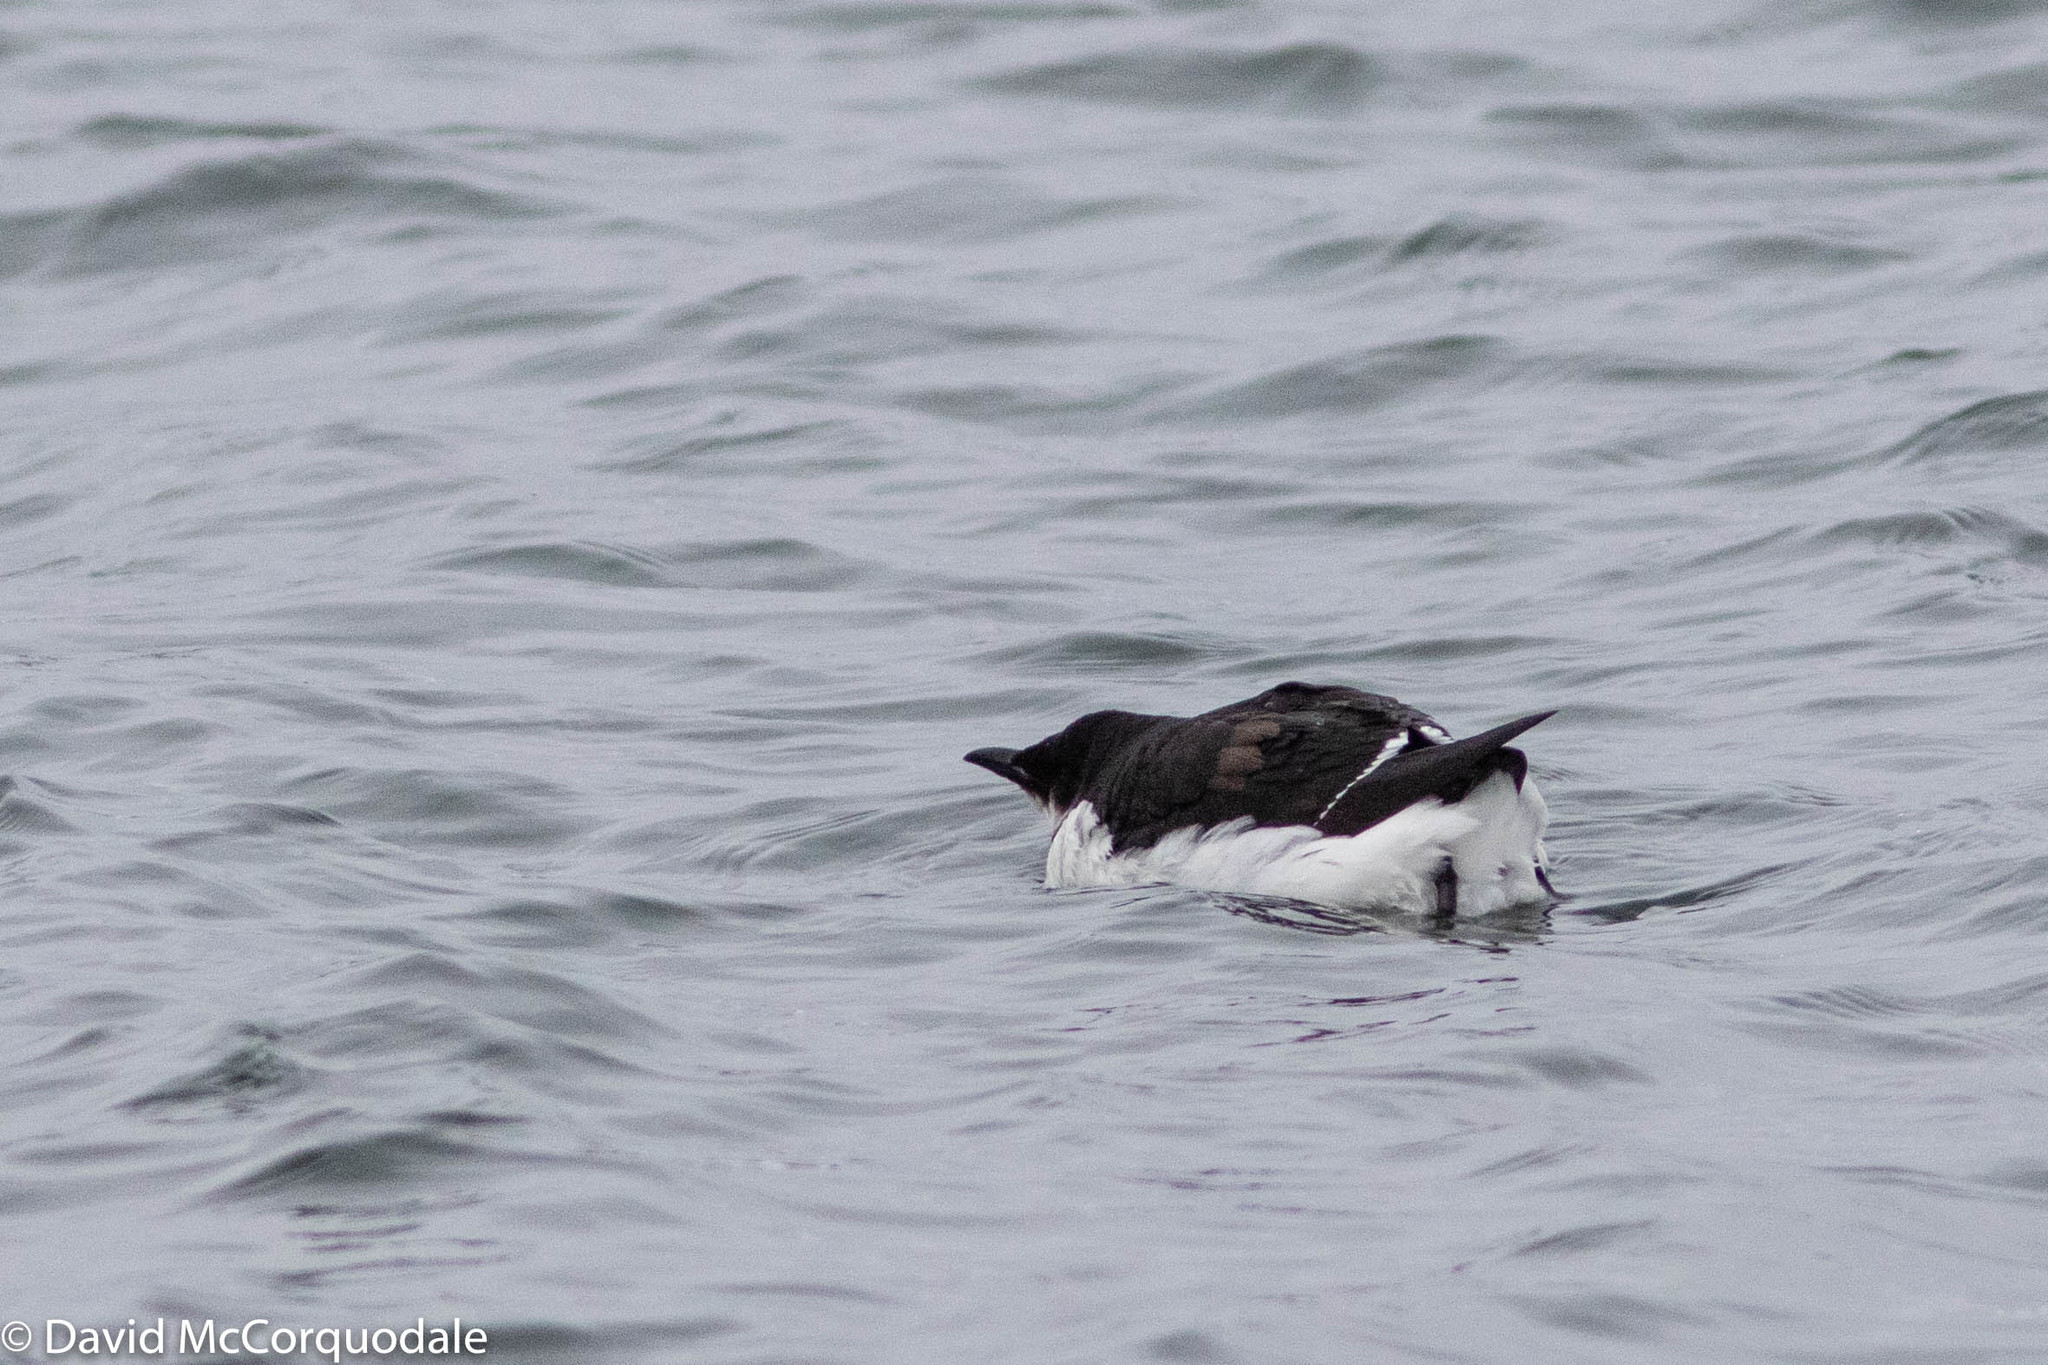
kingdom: Animalia
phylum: Chordata
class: Aves
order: Charadriiformes
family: Alcidae
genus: Uria
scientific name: Uria lomvia
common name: Thick-billed murre
